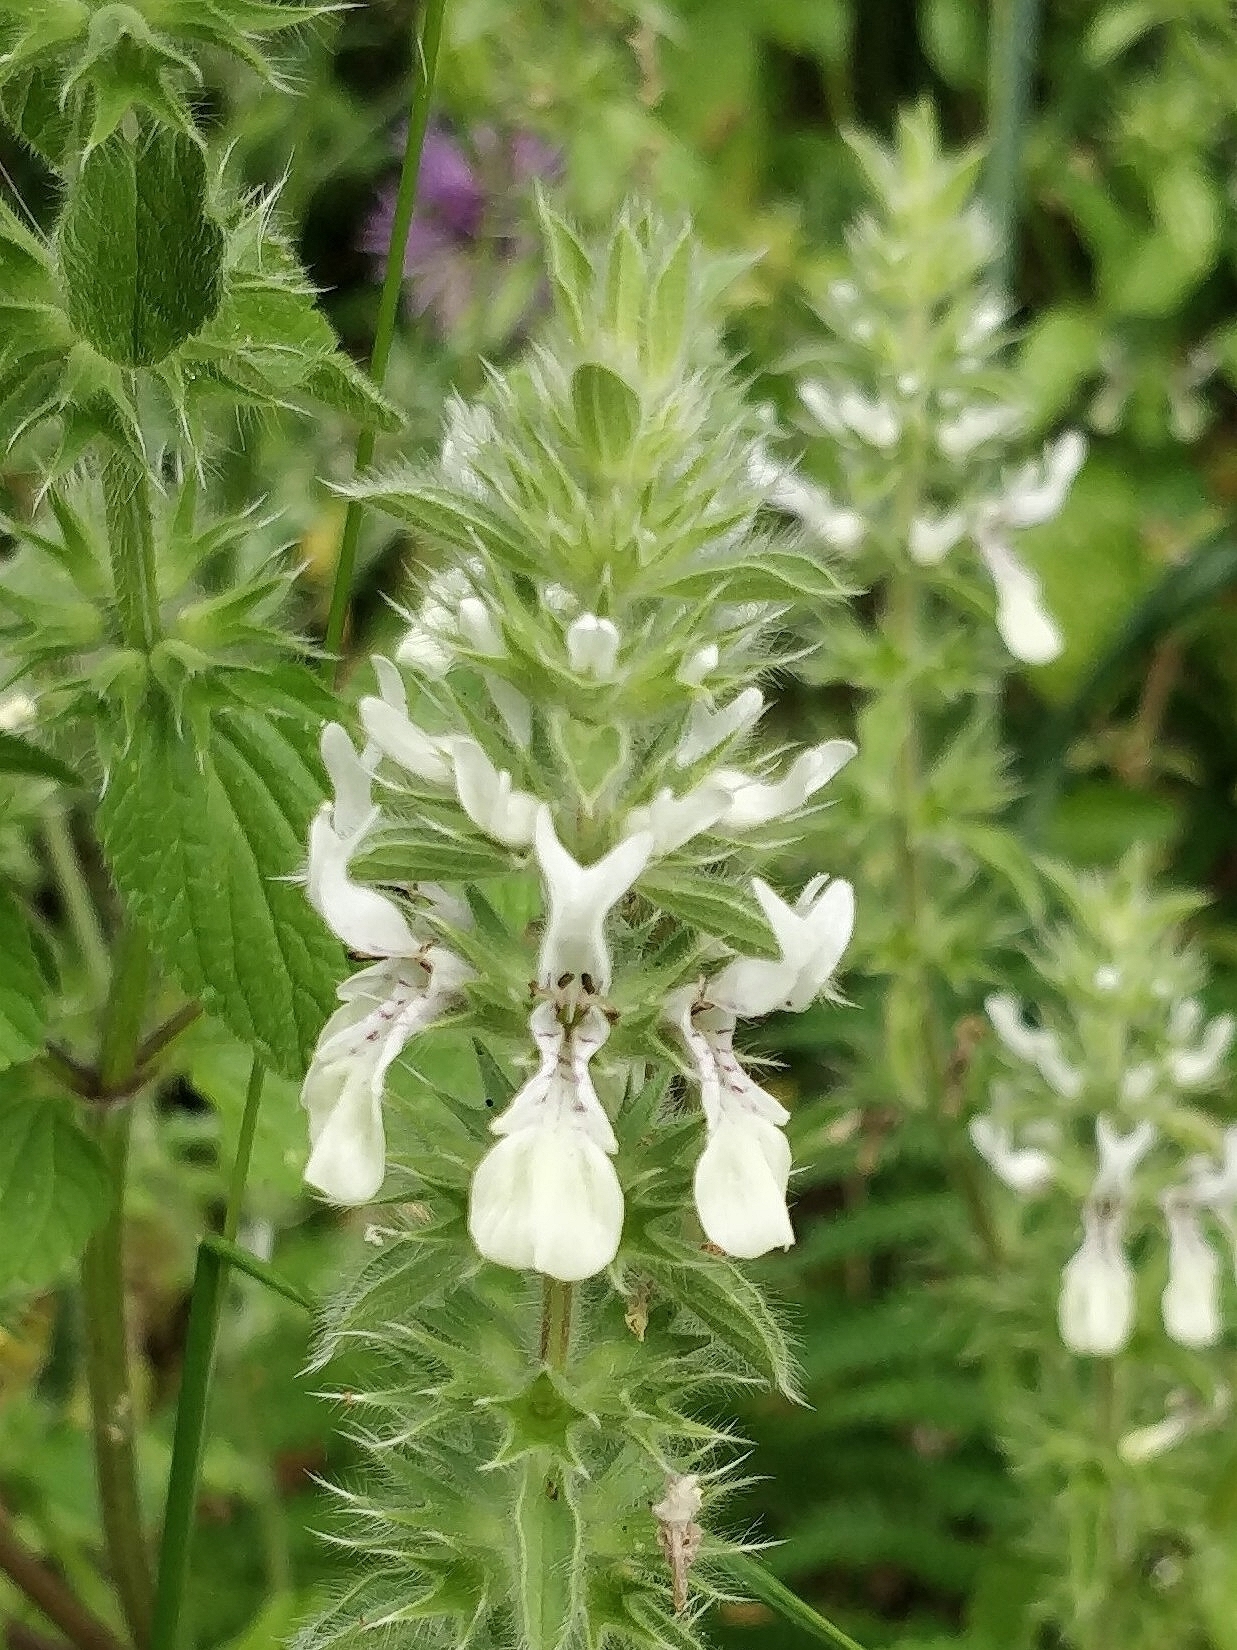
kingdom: Plantae
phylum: Tracheophyta
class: Magnoliopsida
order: Lamiales
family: Lamiaceae
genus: Stachys
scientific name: Stachys ocymastrum
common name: Italian hedgenettle
